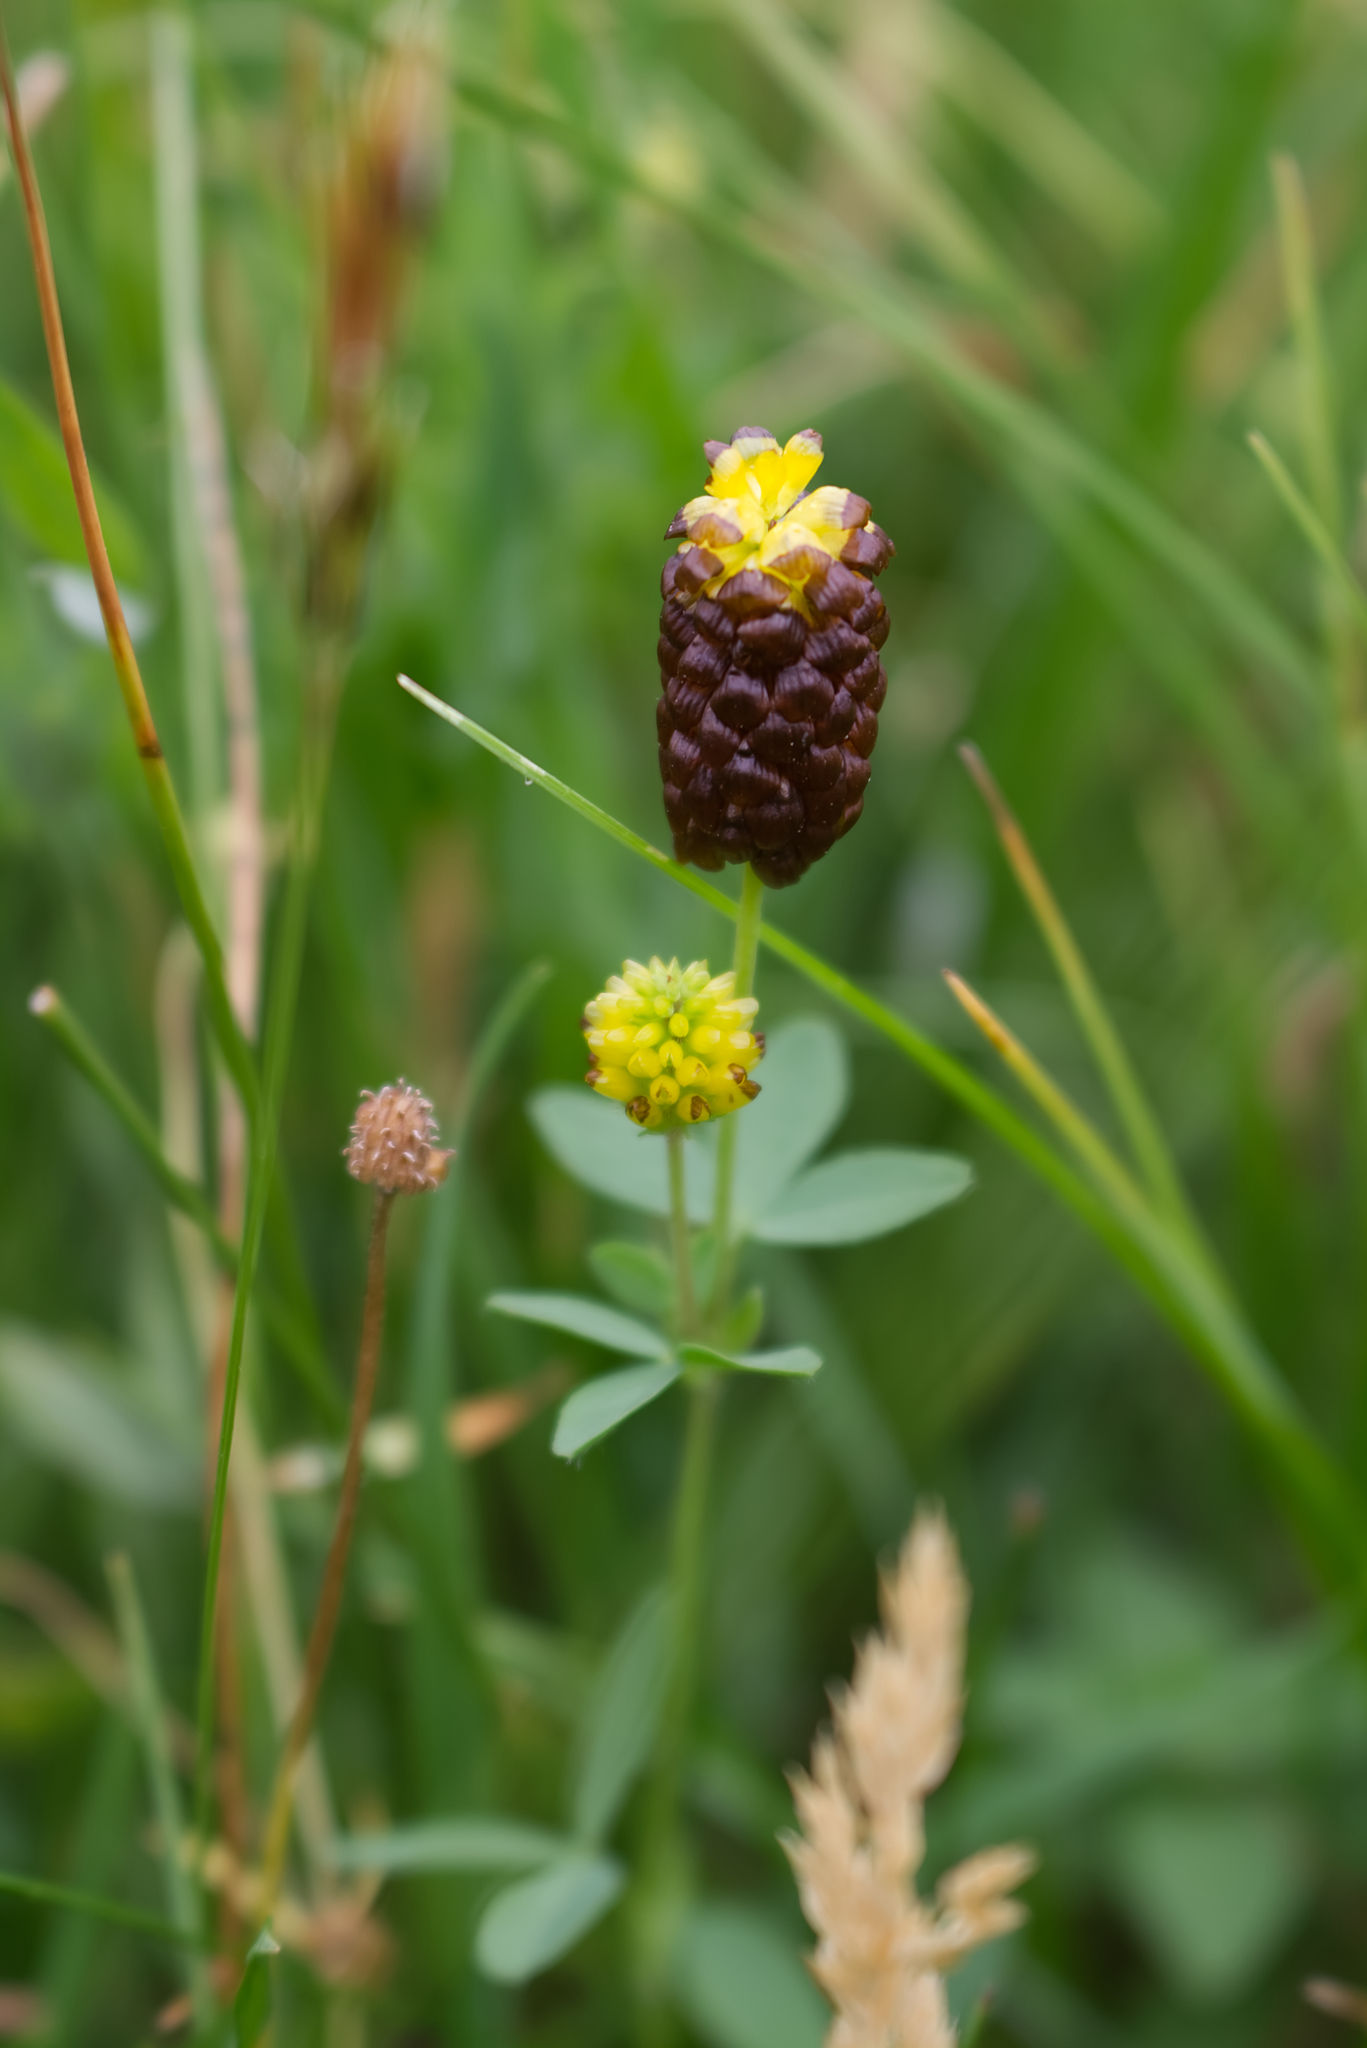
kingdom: Plantae
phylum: Tracheophyta
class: Magnoliopsida
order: Fabales
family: Fabaceae
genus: Trifolium
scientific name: Trifolium spadiceum
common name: Brown moor clover
